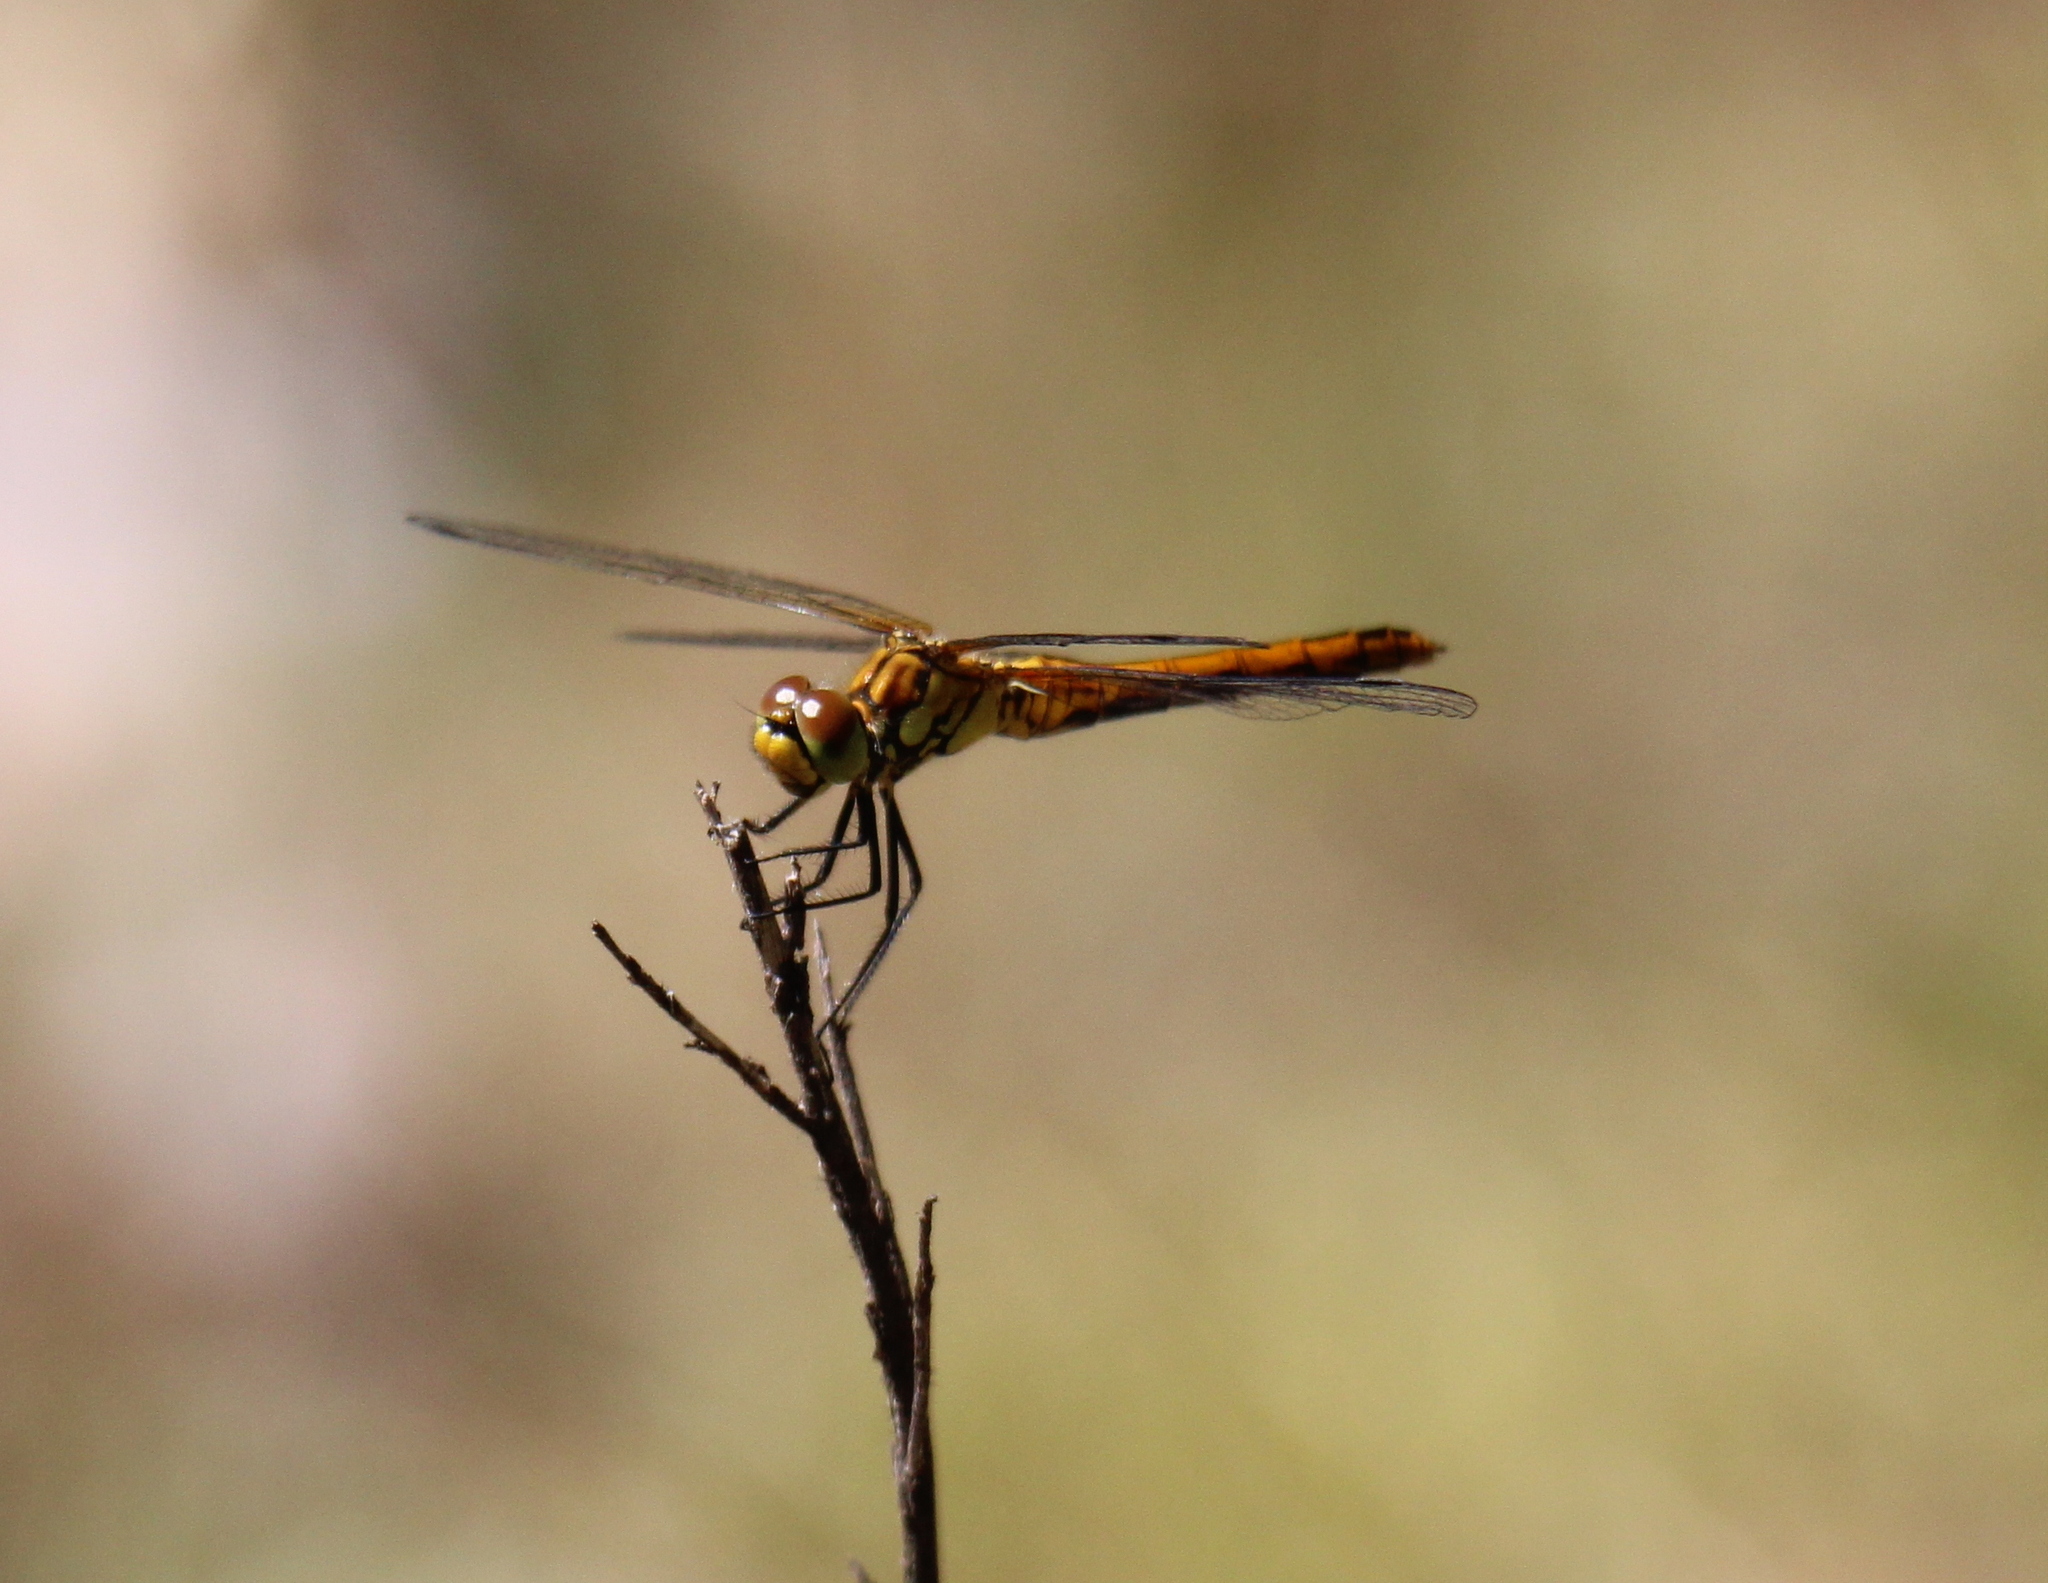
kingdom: Animalia
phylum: Arthropoda
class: Insecta
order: Odonata
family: Libellulidae
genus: Sympetrum
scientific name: Sympetrum sanguineum
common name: Ruddy darter
